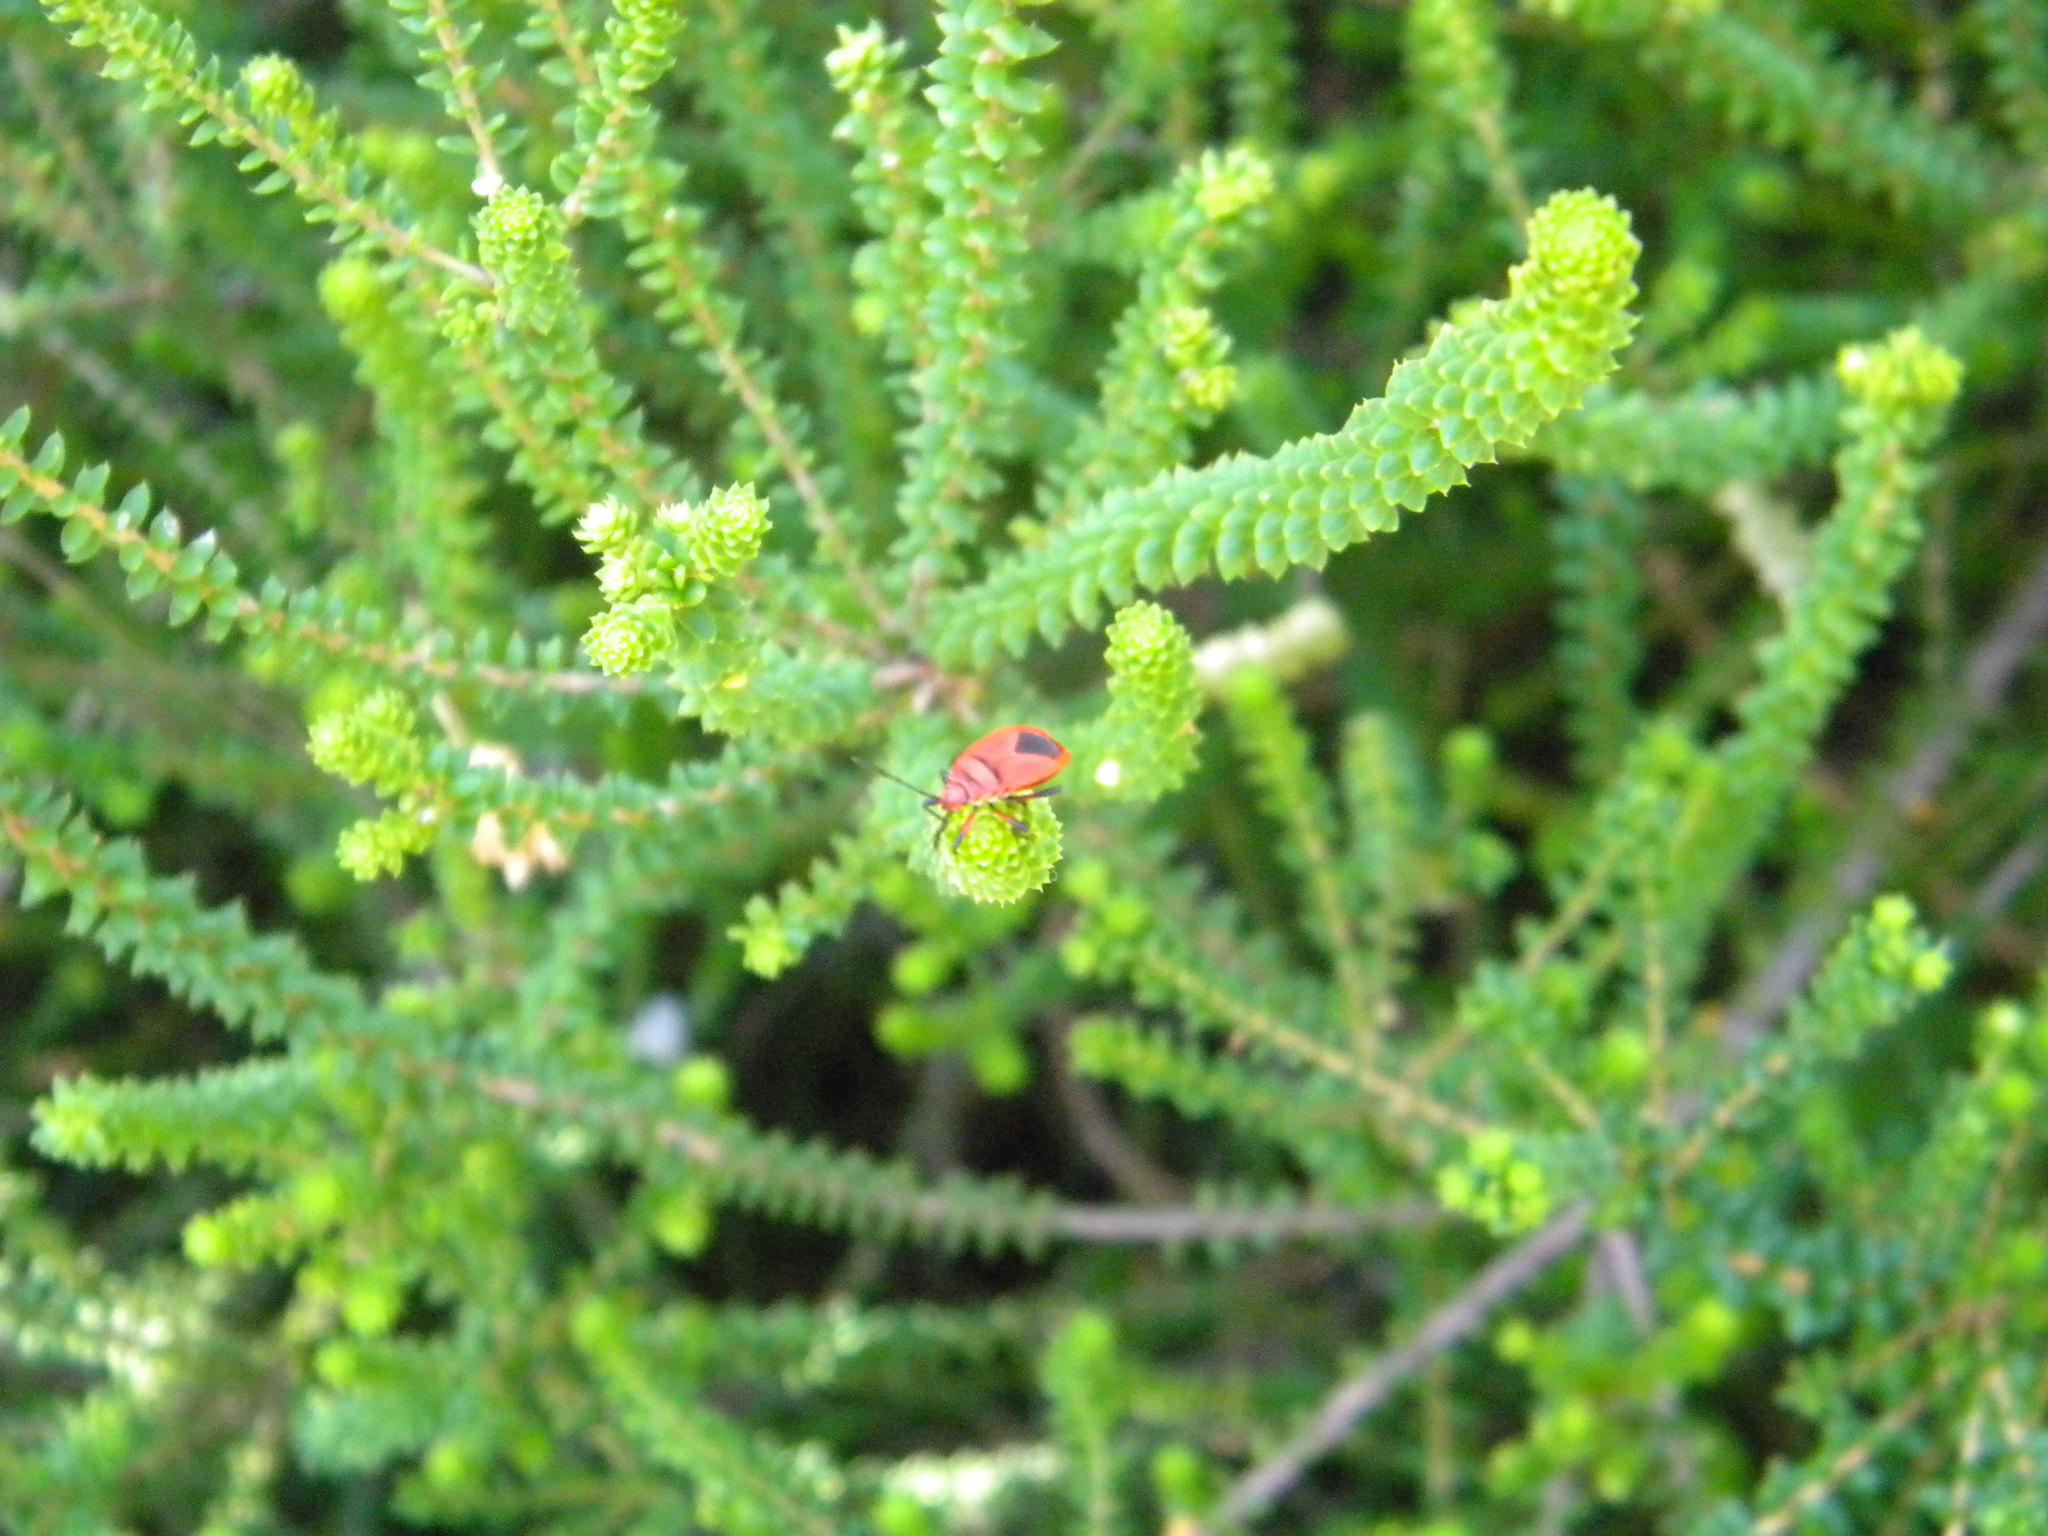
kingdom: Animalia
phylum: Arthropoda
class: Insecta
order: Hemiptera
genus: Cenaeus
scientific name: Cenaeus
